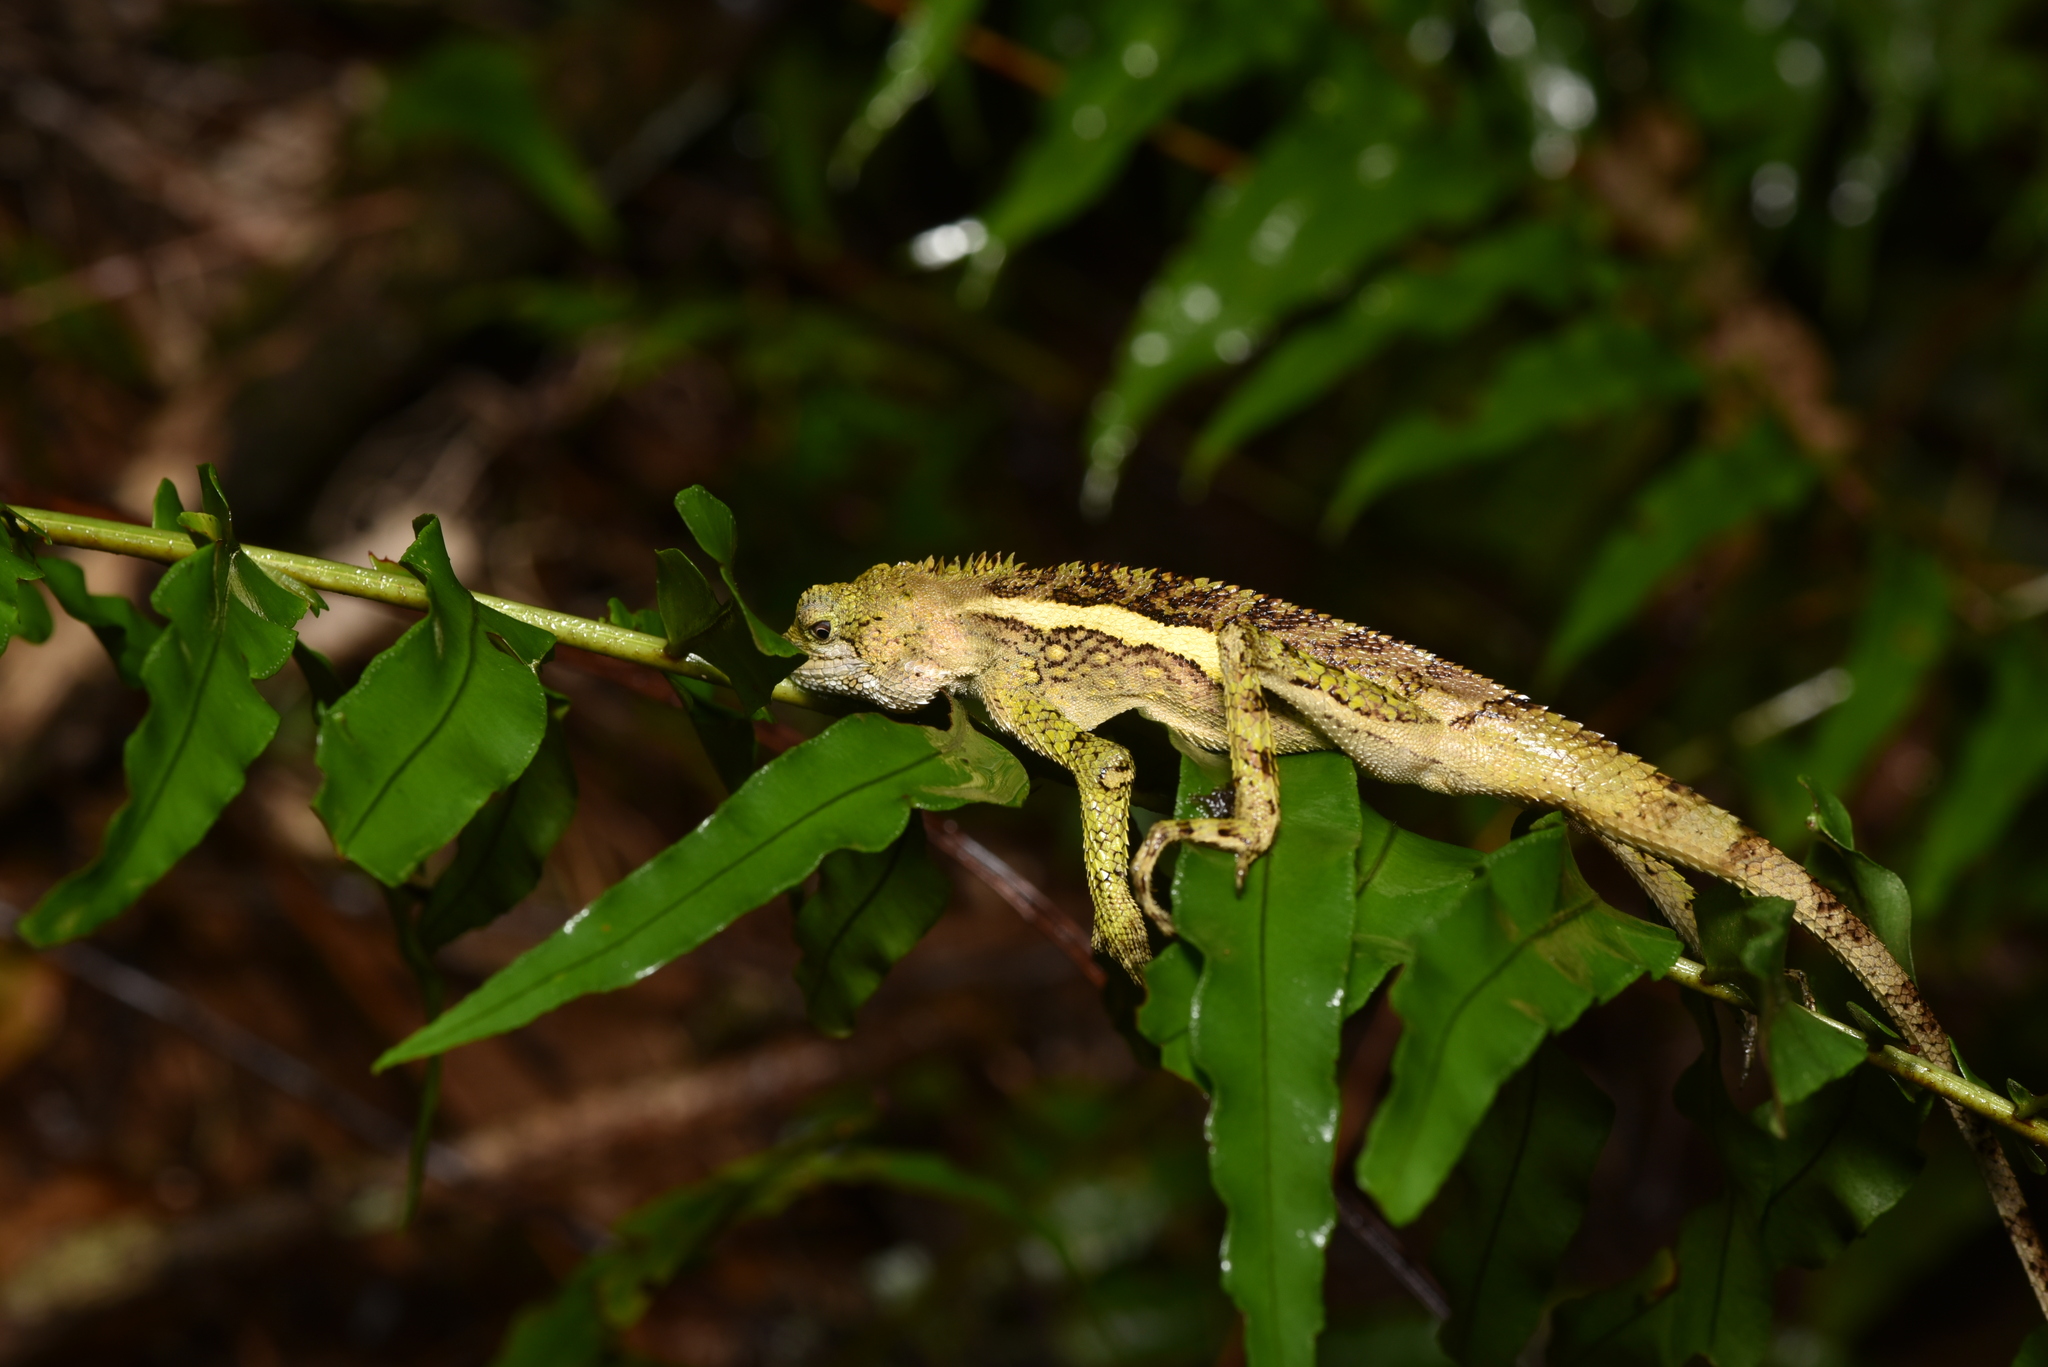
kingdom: Animalia
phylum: Chordata
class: Squamata
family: Agamidae
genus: Diploderma
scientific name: Diploderma swinhonis
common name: Taiwan japalure
